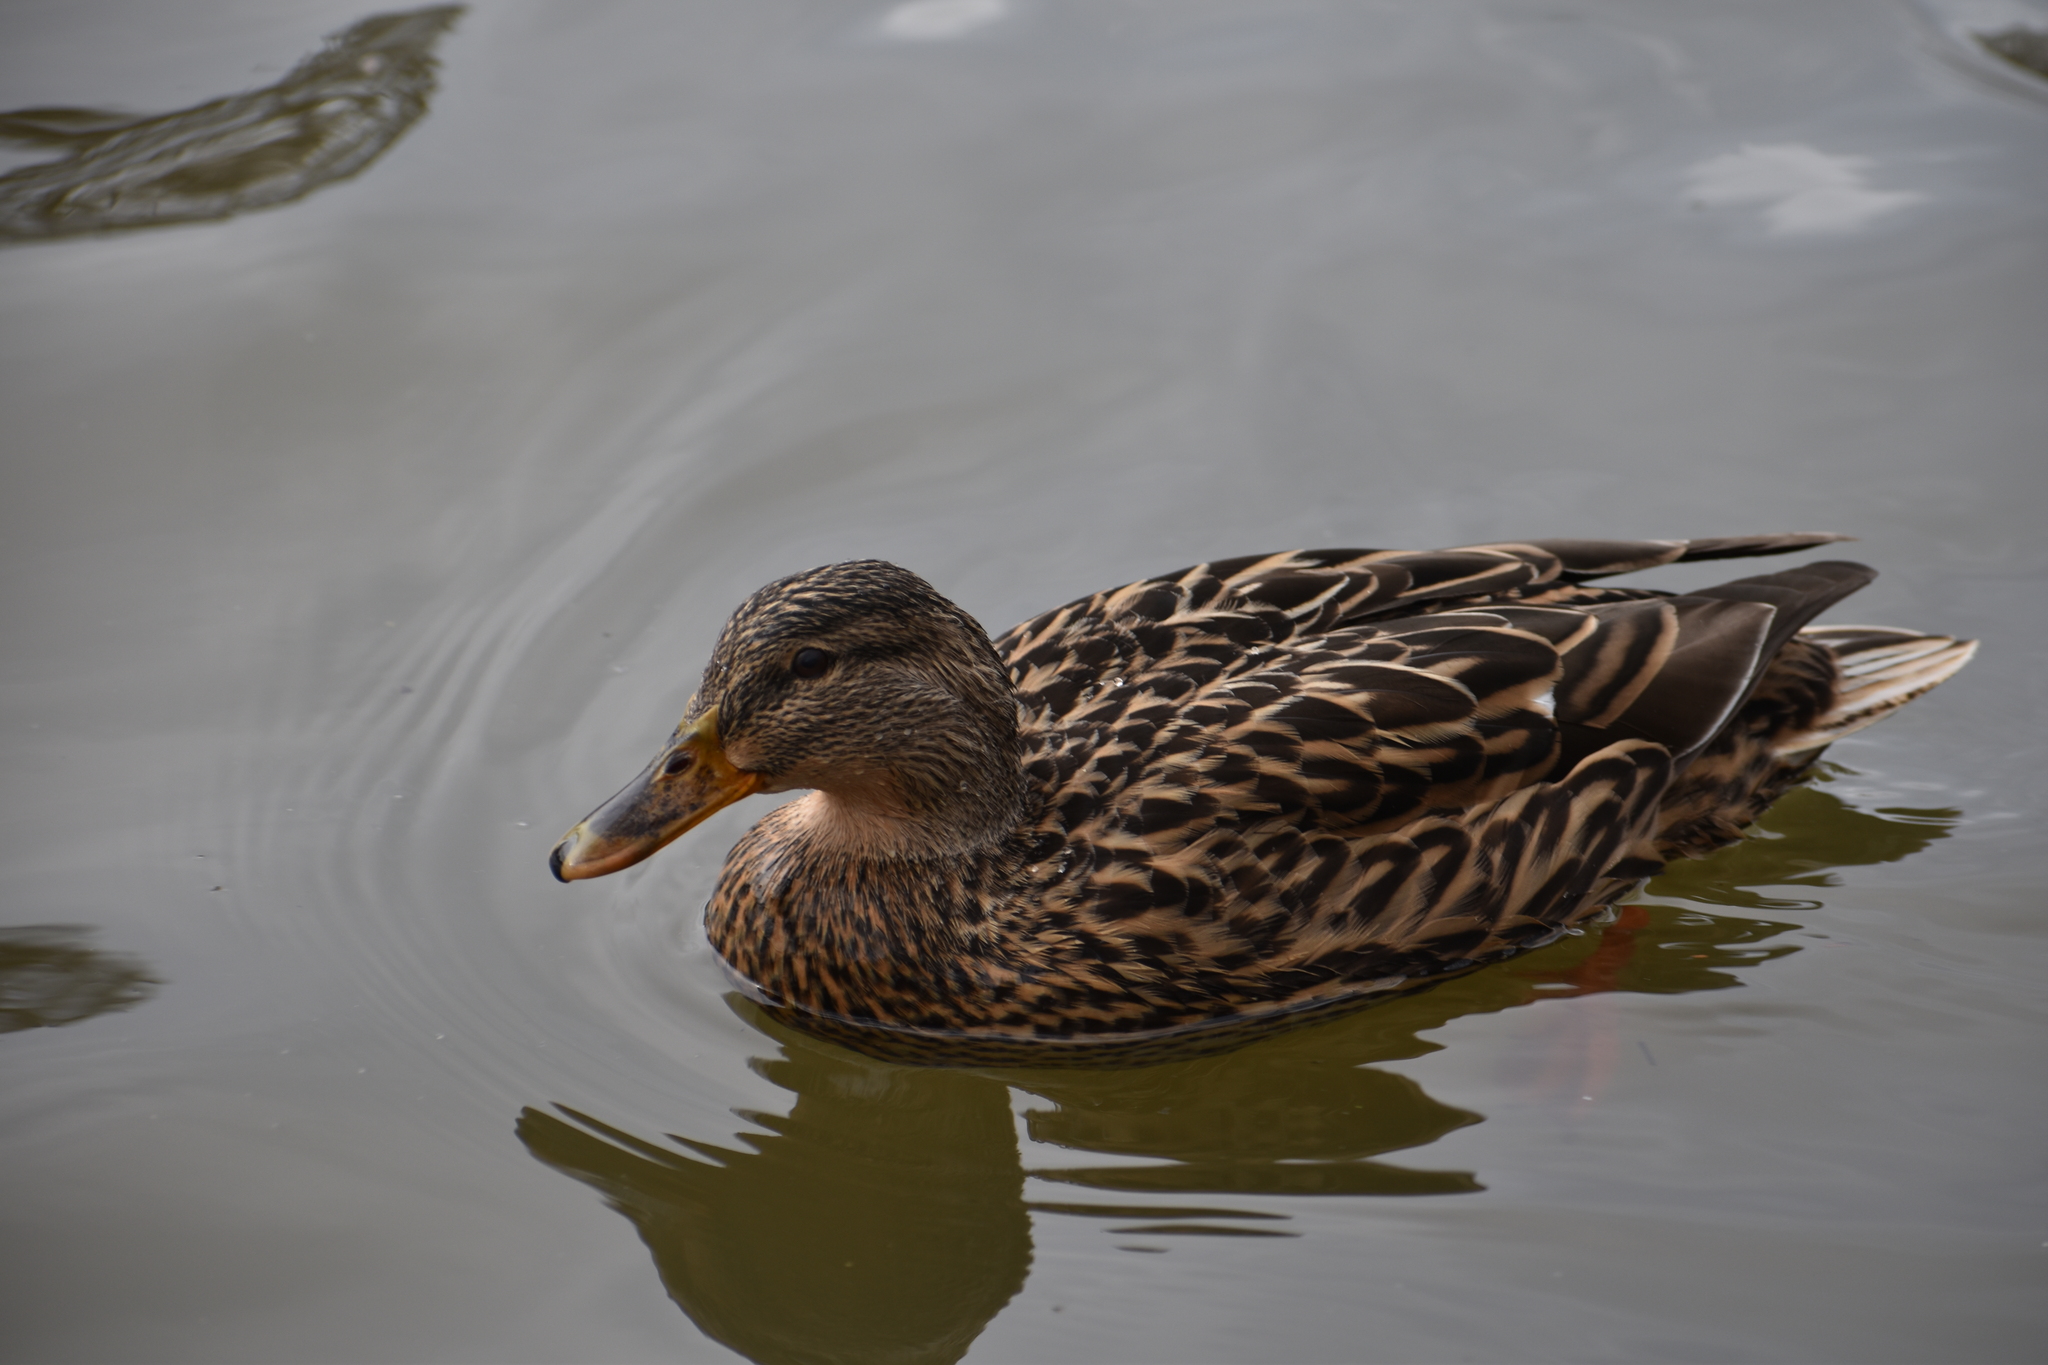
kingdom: Animalia
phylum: Chordata
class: Aves
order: Anseriformes
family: Anatidae
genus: Anas
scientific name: Anas platyrhynchos
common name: Mallard
